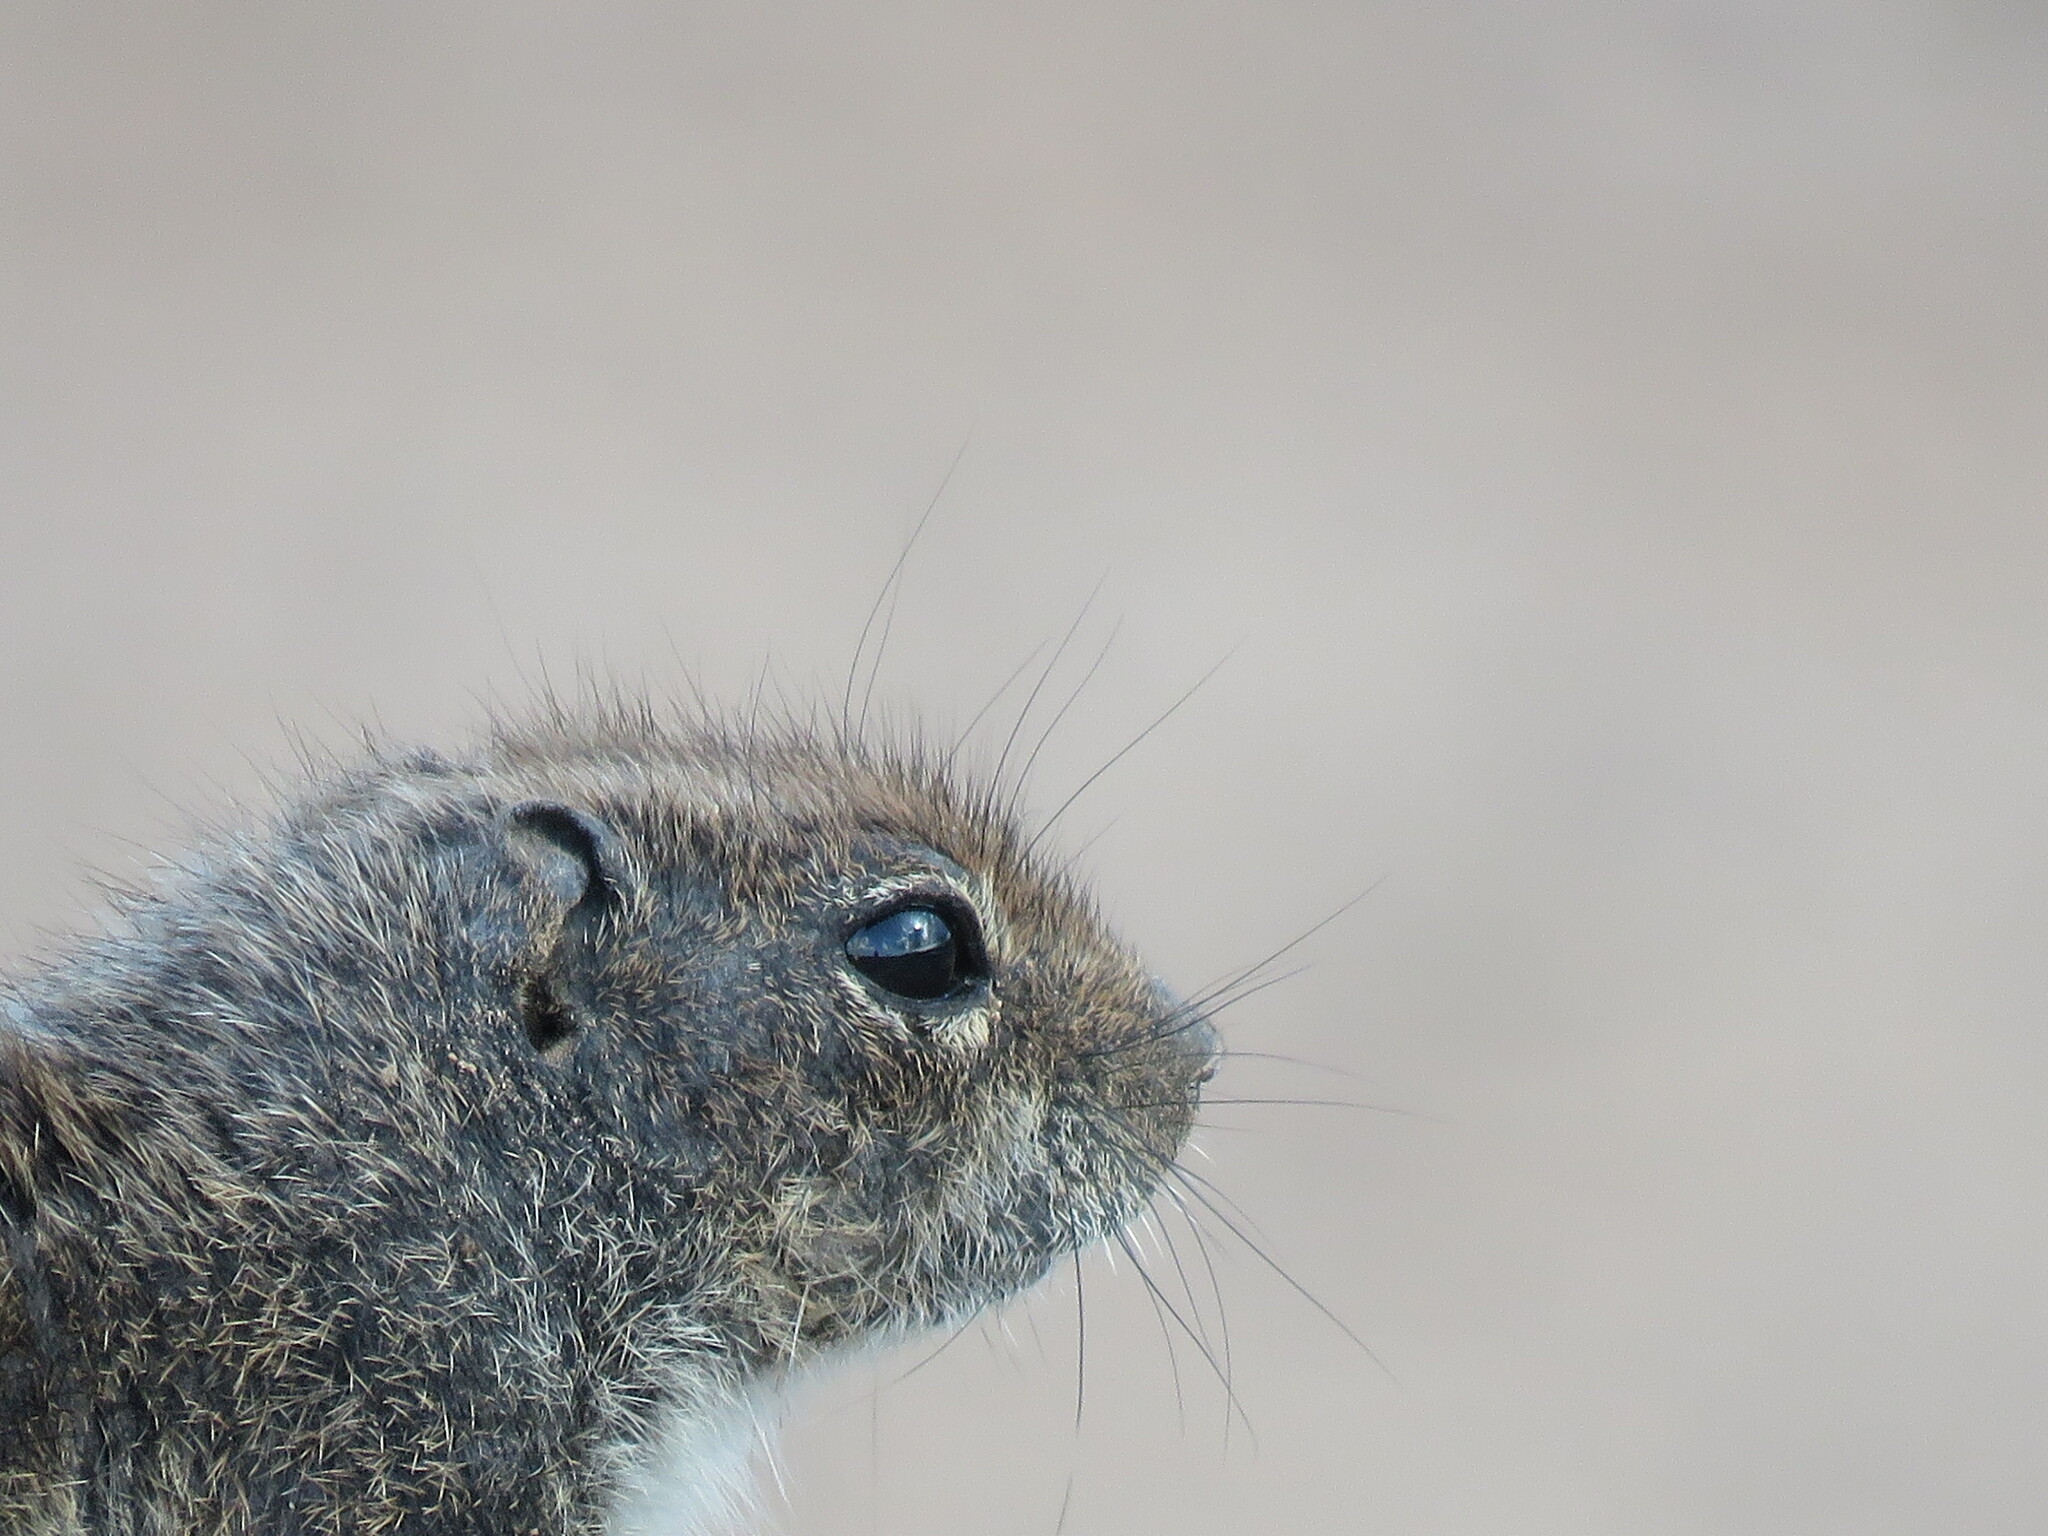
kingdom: Animalia
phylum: Chordata
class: Mammalia
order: Rodentia
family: Sciuridae
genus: Atlantoxerus
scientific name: Atlantoxerus getulus
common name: Barbary ground squirrel
